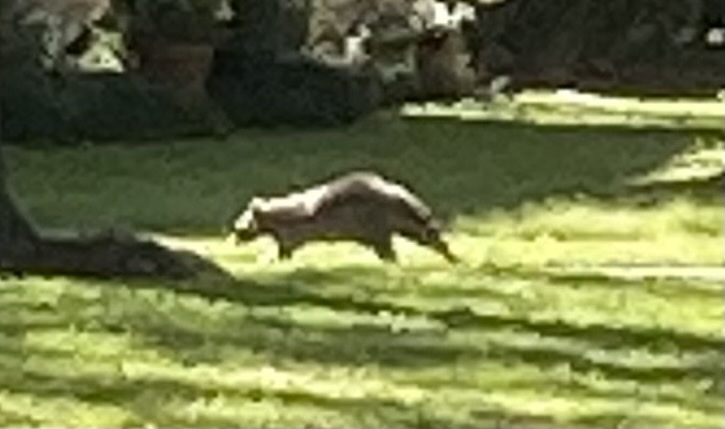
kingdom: Animalia
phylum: Chordata
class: Mammalia
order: Carnivora
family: Procyonidae
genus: Procyon
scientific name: Procyon lotor
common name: Raccoon
